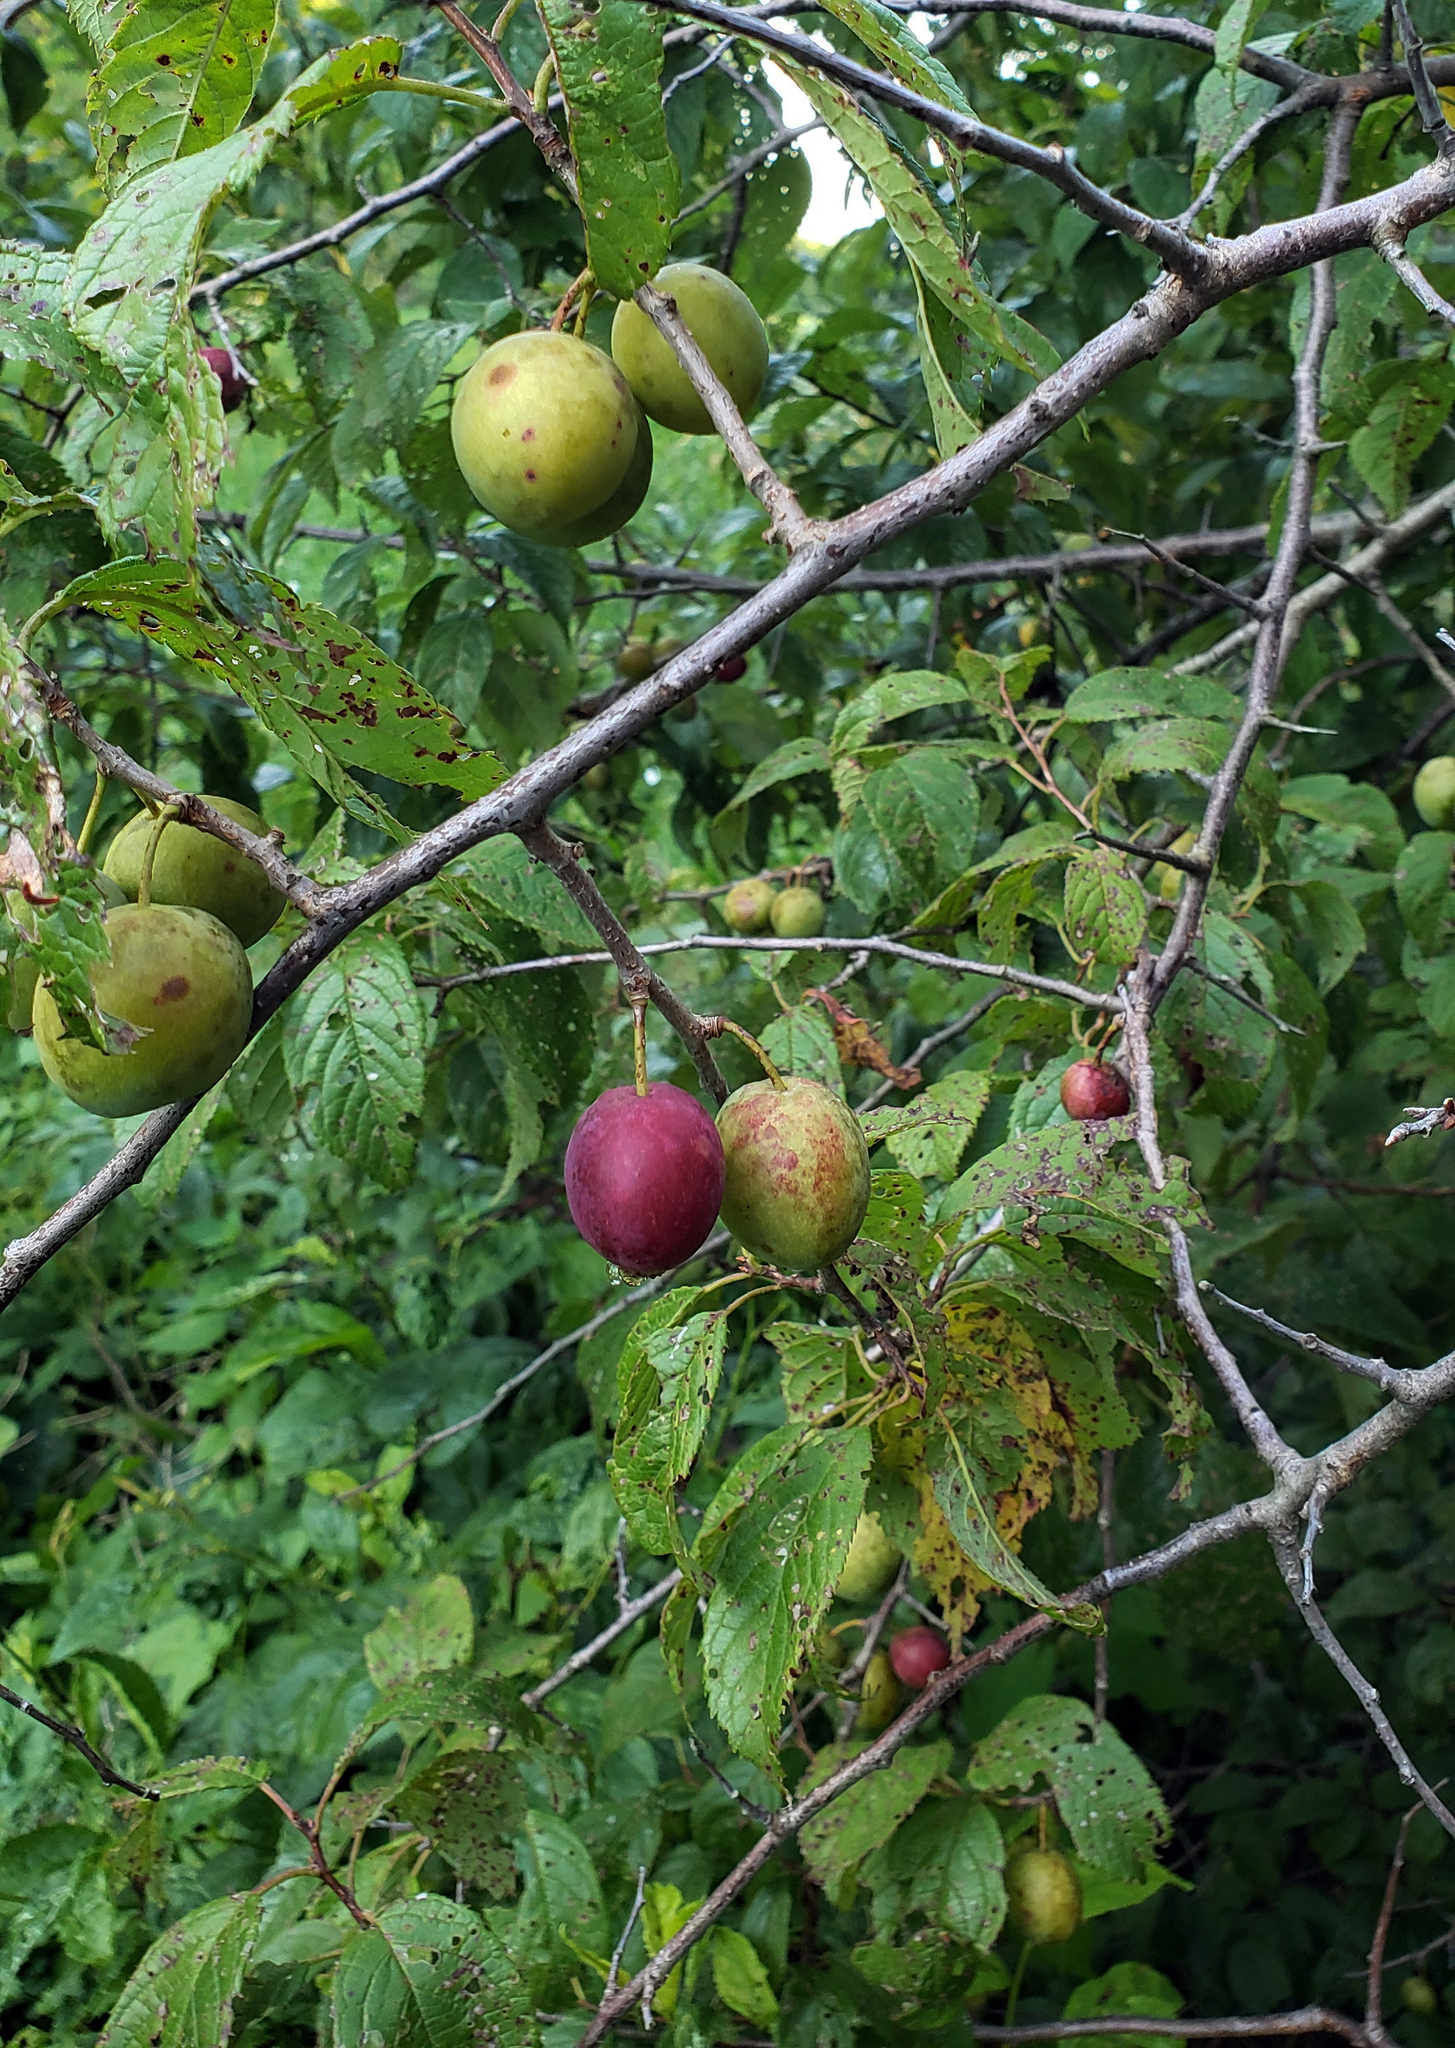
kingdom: Plantae
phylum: Tracheophyta
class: Magnoliopsida
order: Rosales
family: Rosaceae
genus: Prunus
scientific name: Prunus americana
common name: American plum
